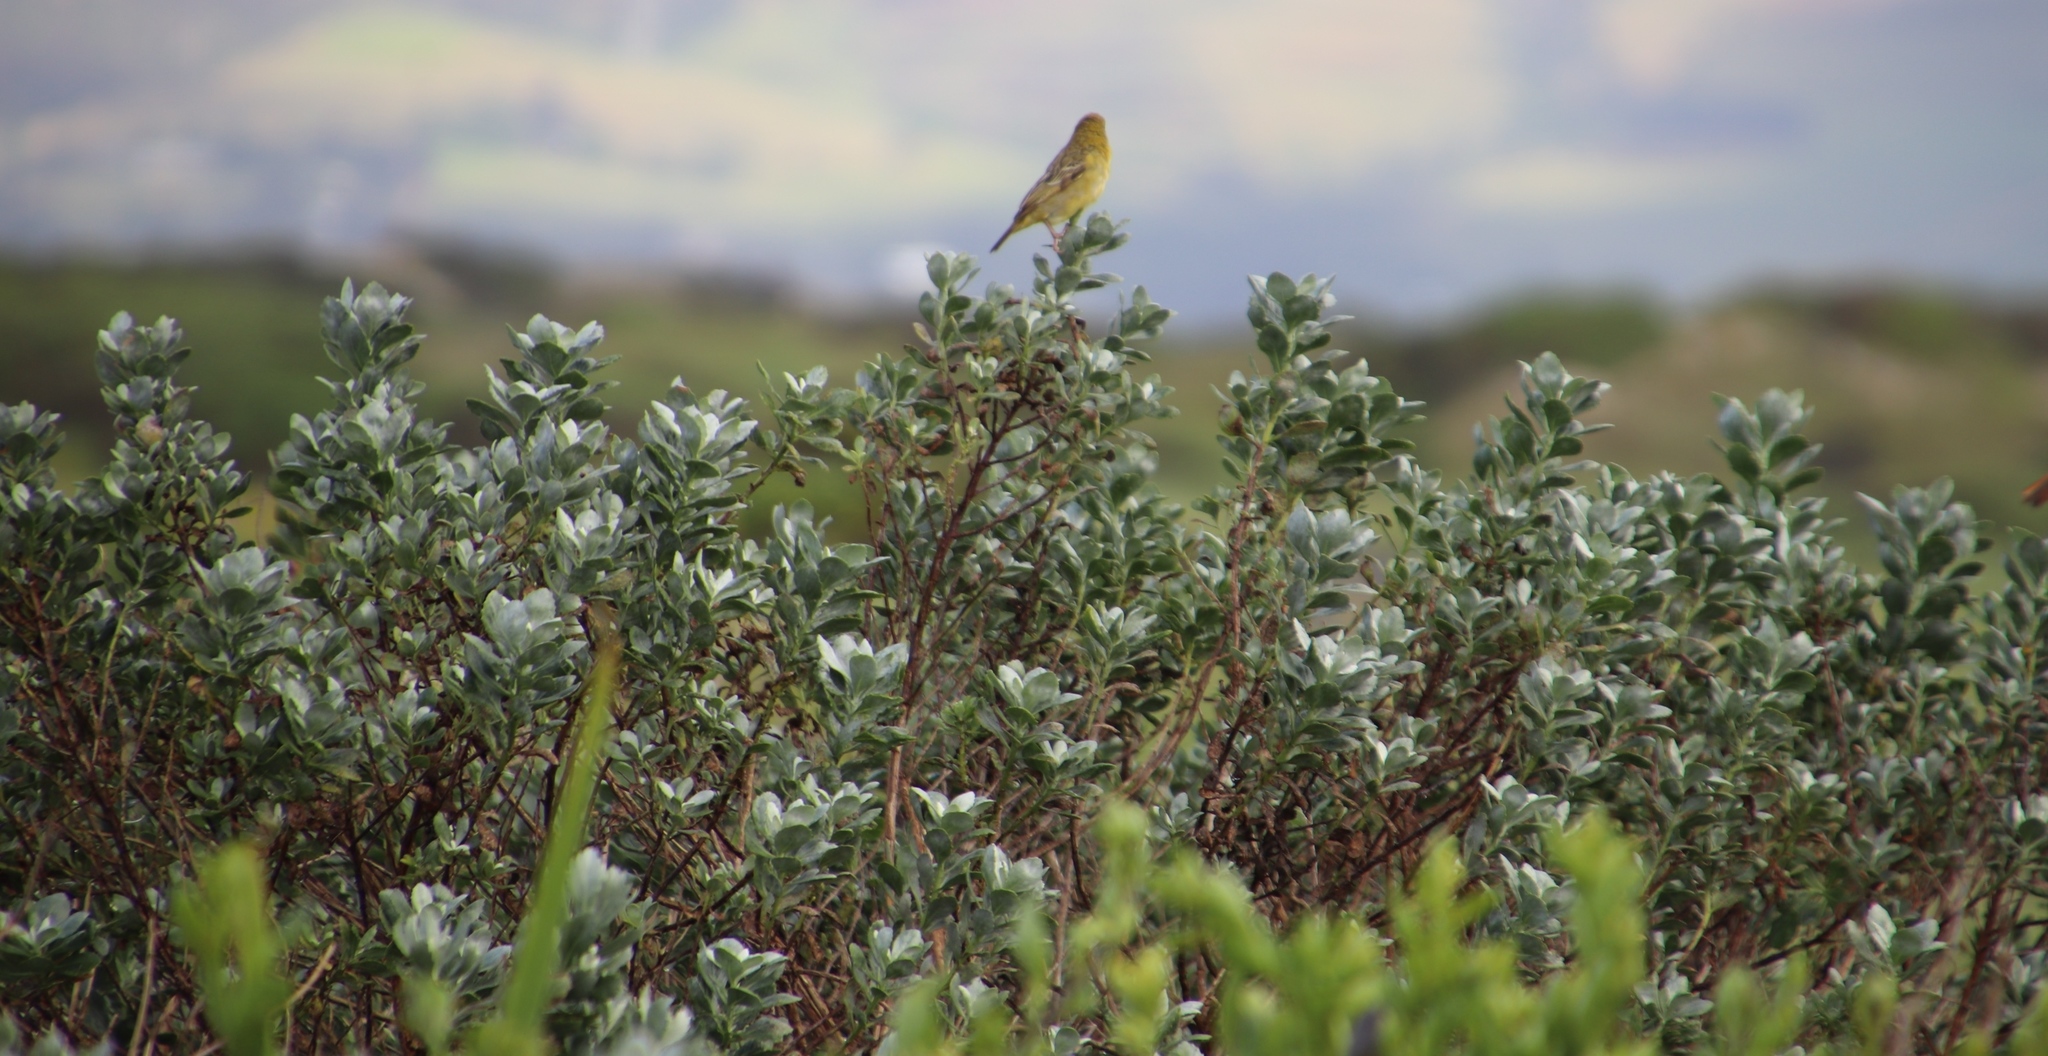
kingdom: Animalia
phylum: Chordata
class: Aves
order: Passeriformes
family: Ploceidae
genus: Ploceus
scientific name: Ploceus velatus
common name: Southern masked weaver
